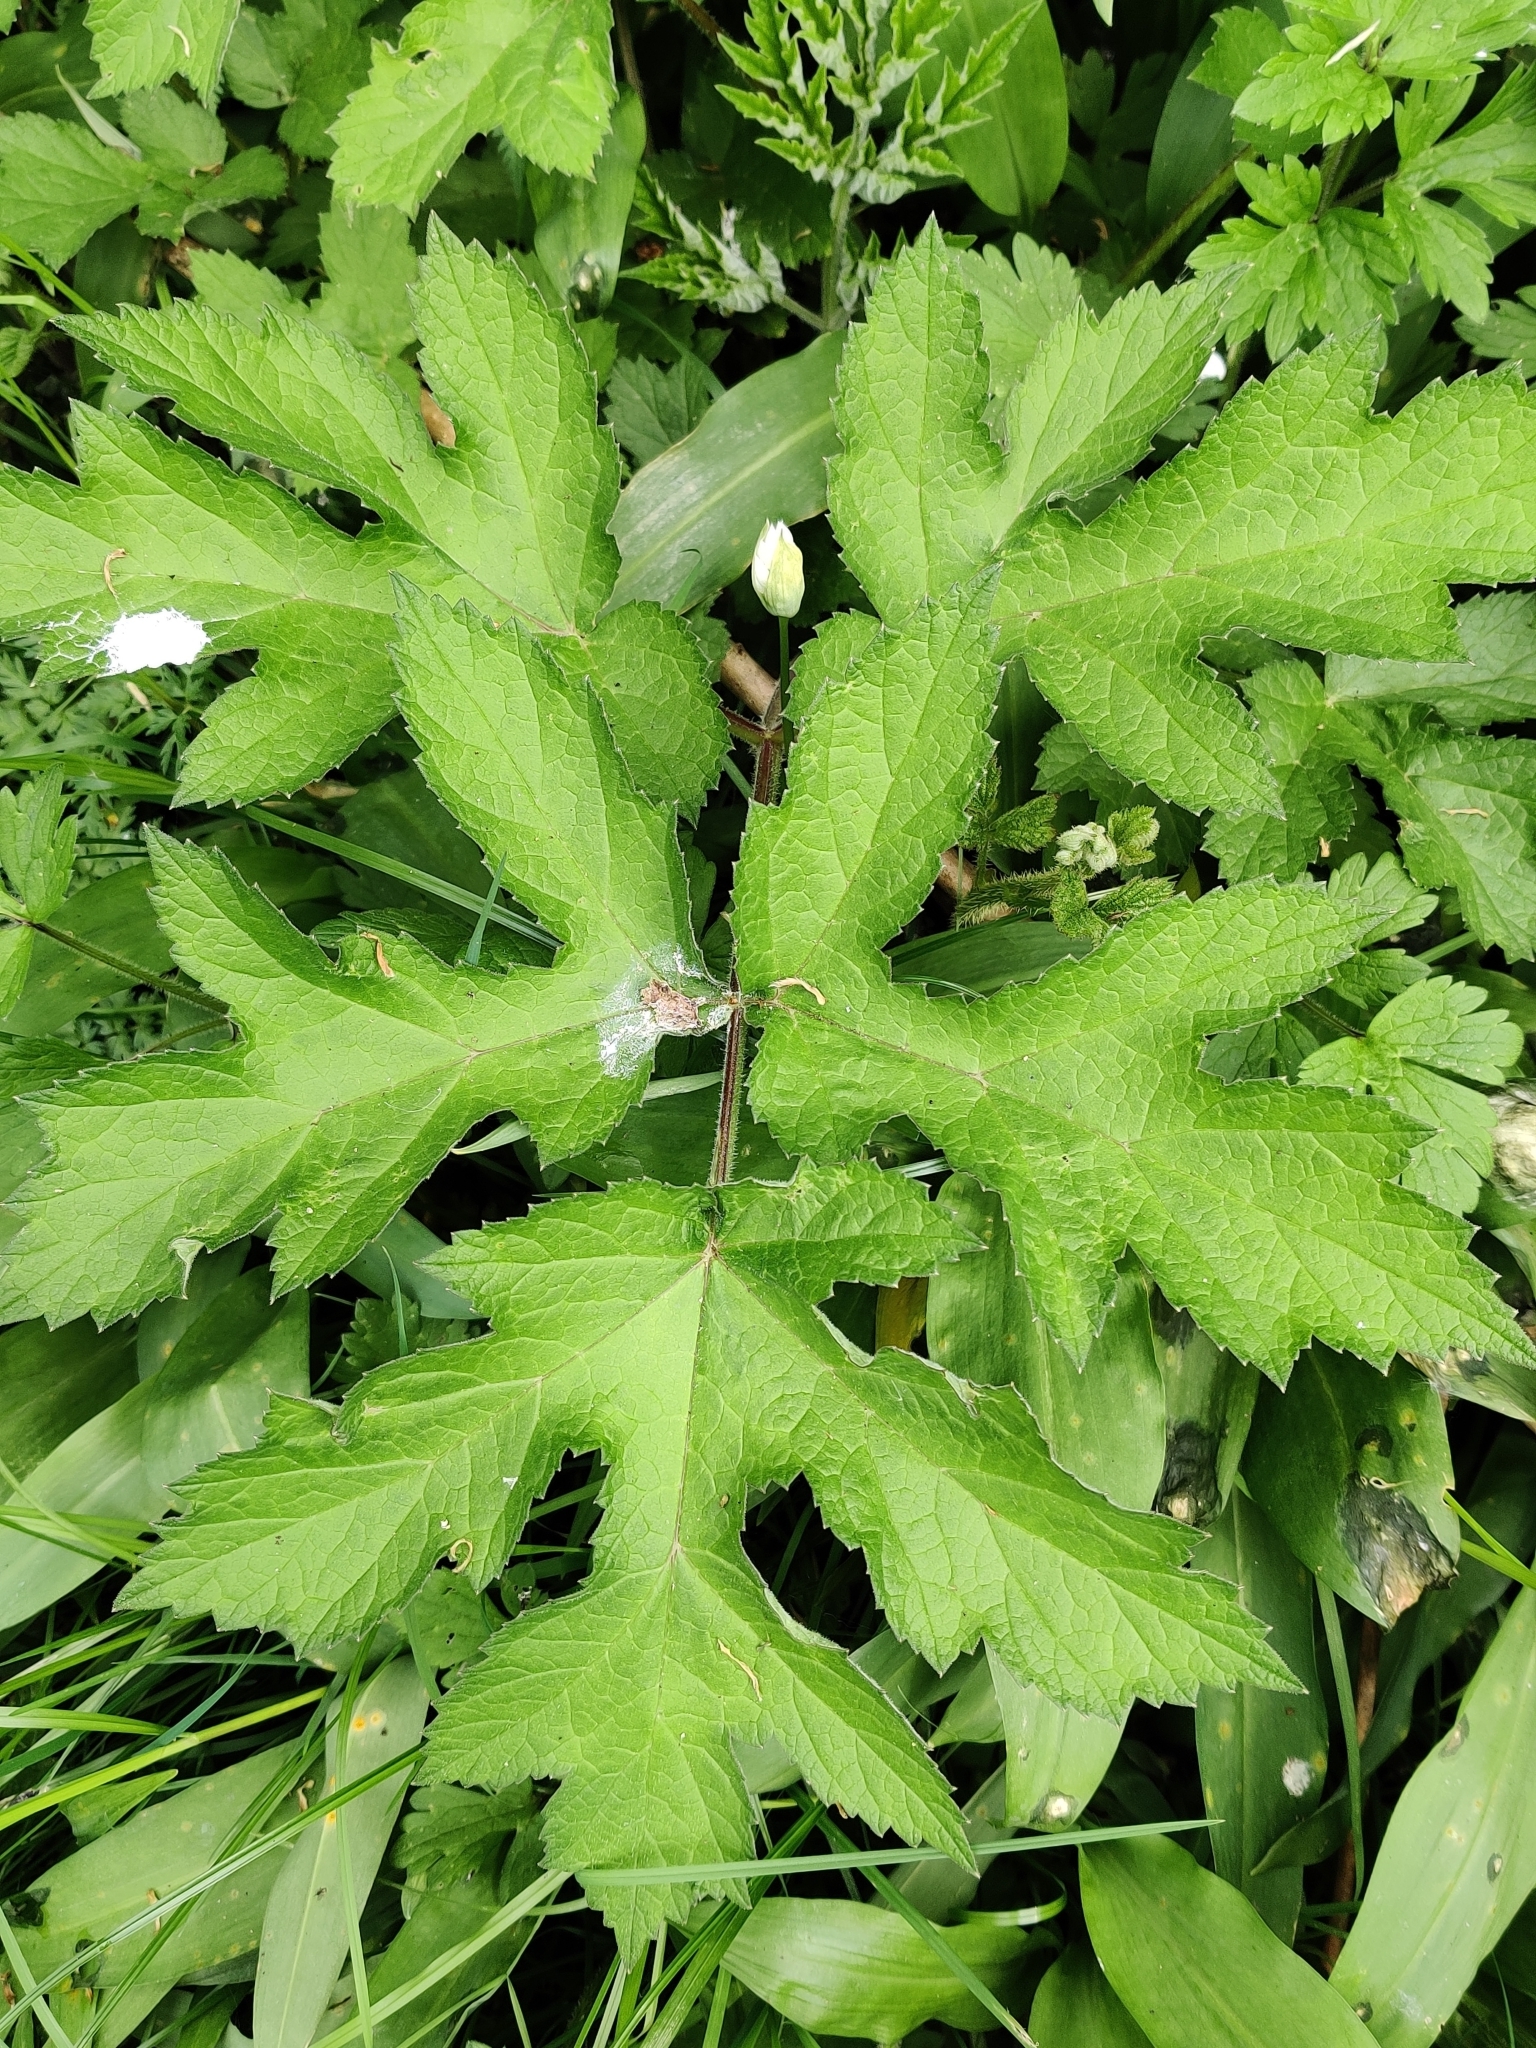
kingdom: Plantae
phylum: Tracheophyta
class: Magnoliopsida
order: Apiales
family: Apiaceae
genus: Heracleum
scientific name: Heracleum sphondylium
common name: Hogweed
